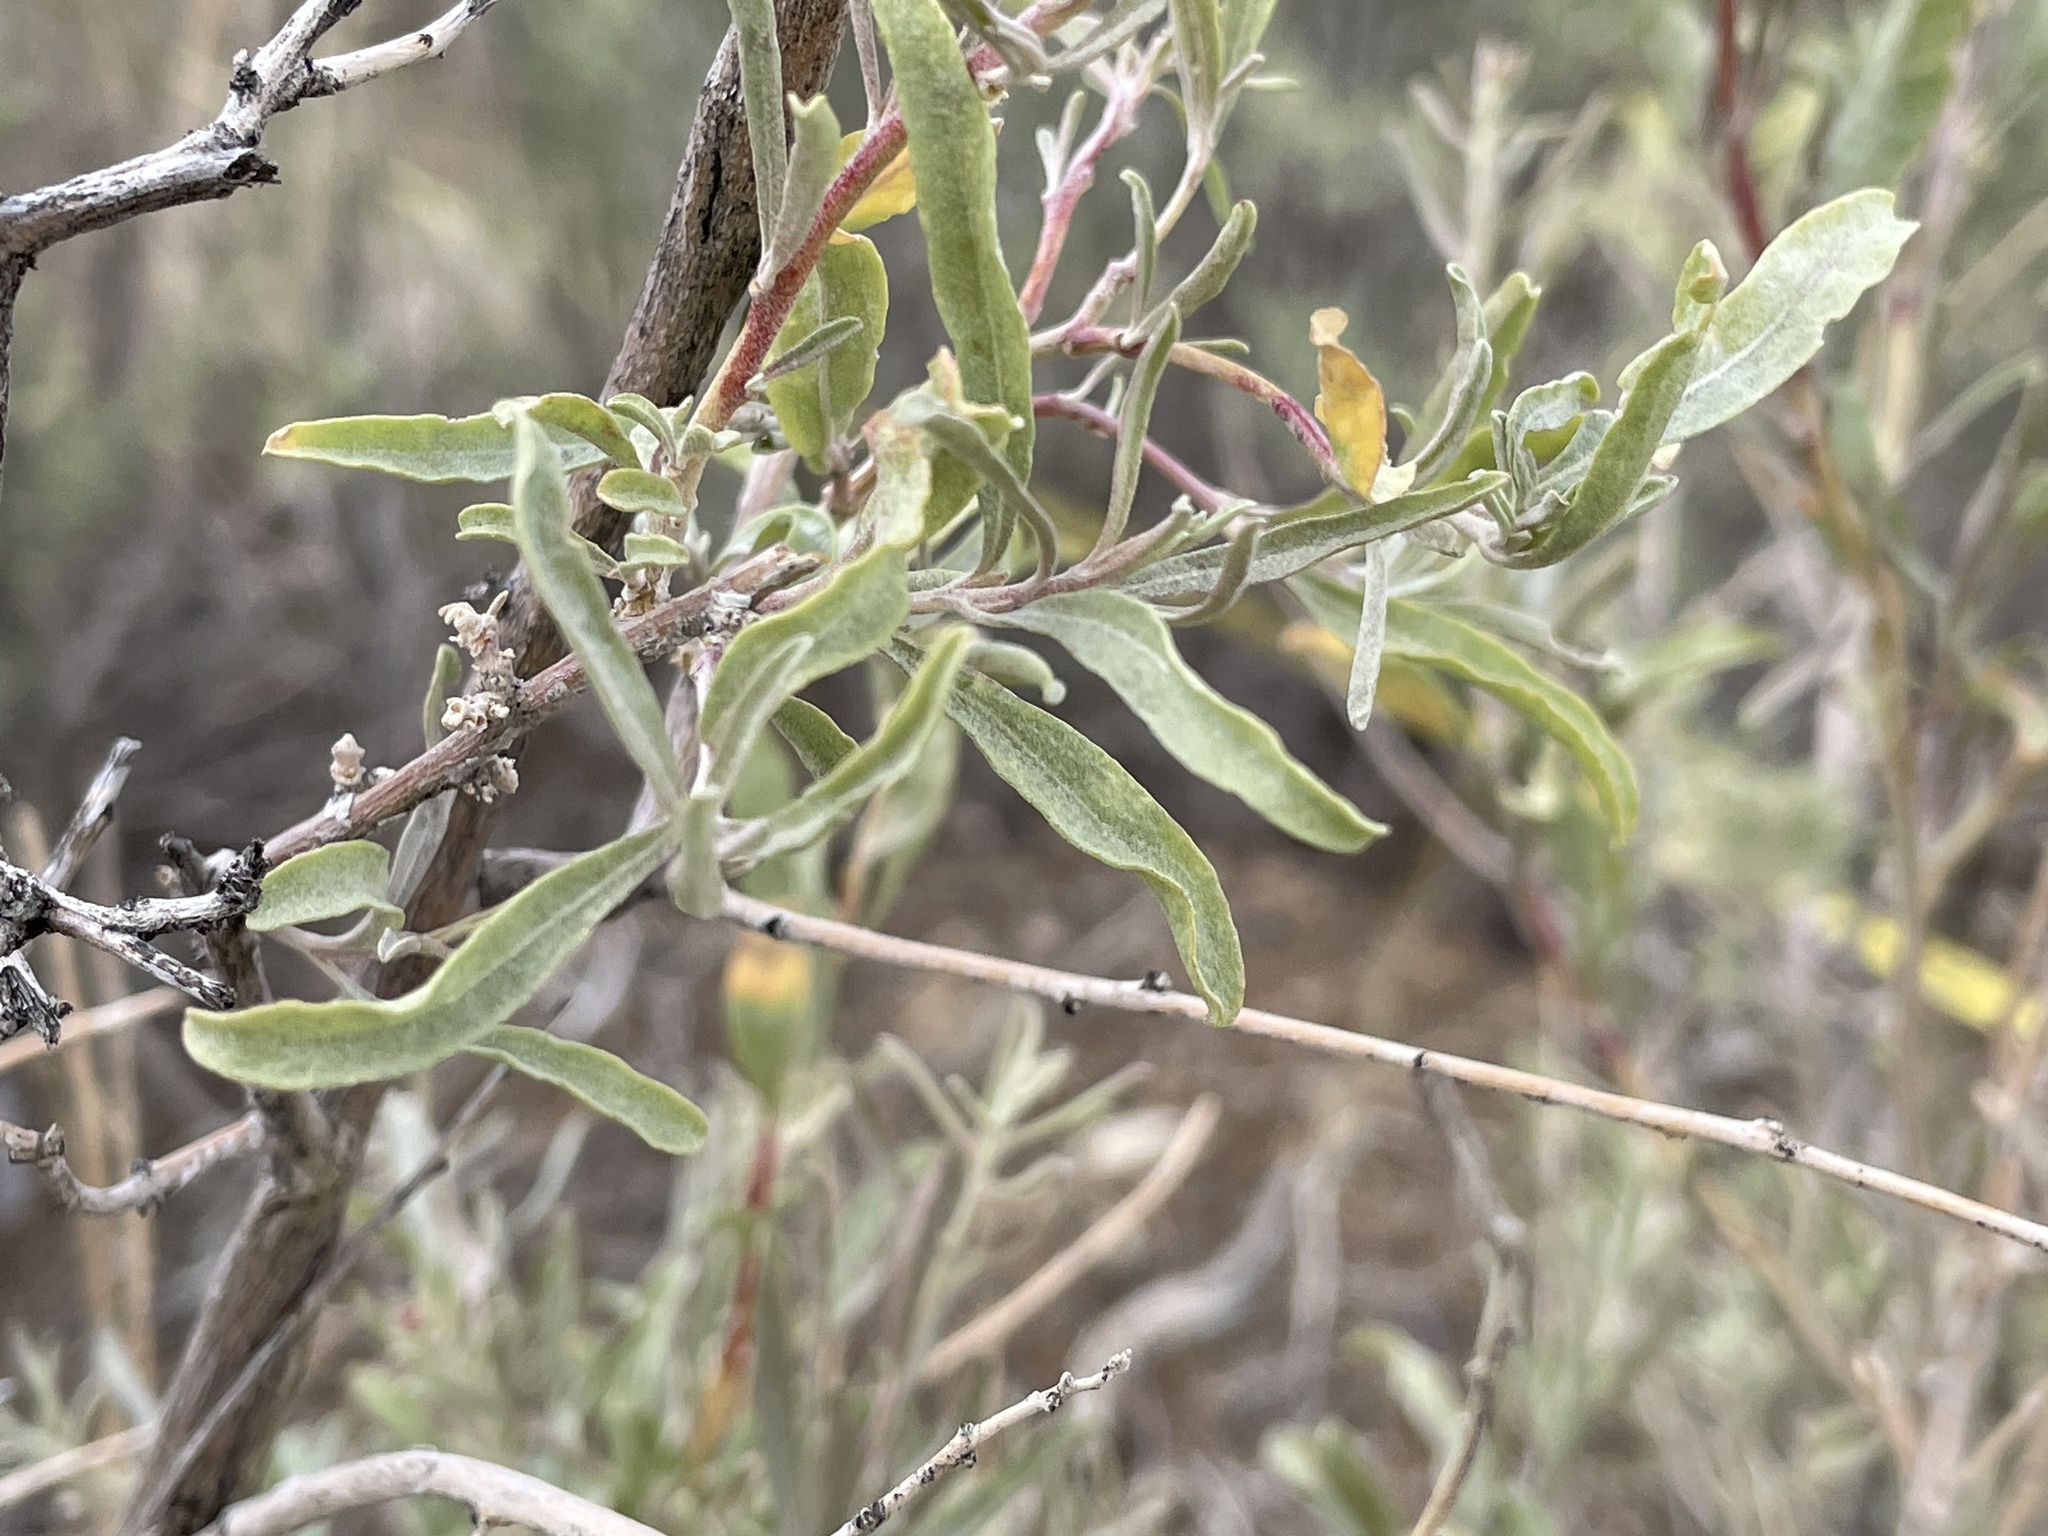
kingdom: Plantae
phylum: Tracheophyta
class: Magnoliopsida
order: Caryophyllales
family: Amaranthaceae
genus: Atriplex
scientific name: Atriplex canescens
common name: Four-wing saltbush
